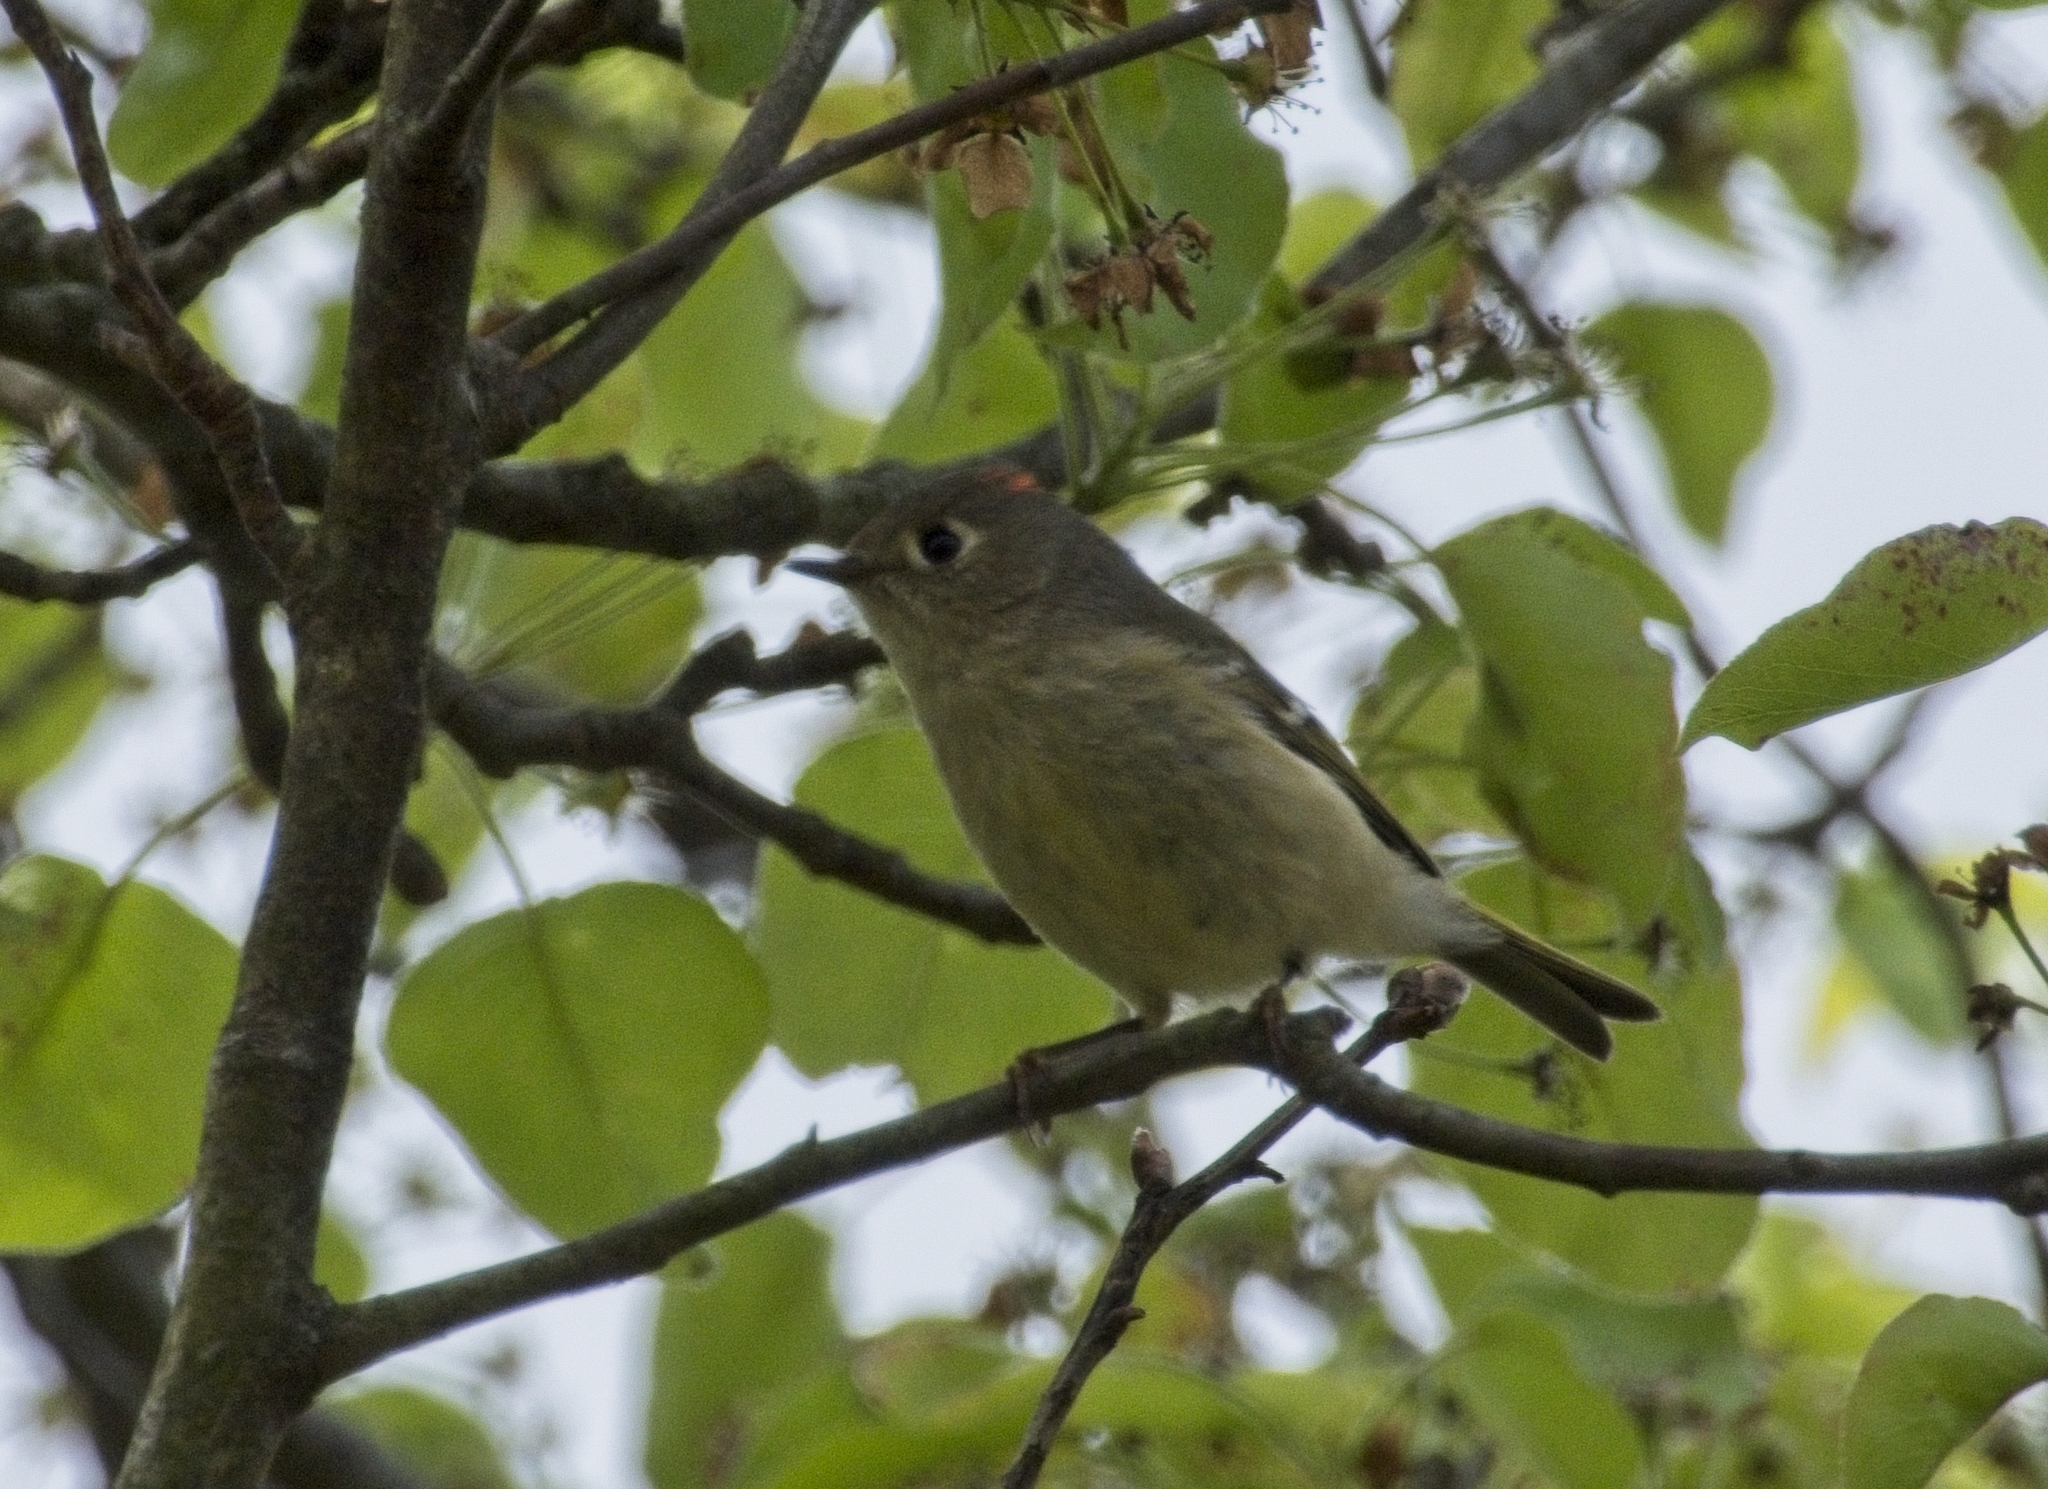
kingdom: Animalia
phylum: Chordata
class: Aves
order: Passeriformes
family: Regulidae
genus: Regulus
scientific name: Regulus calendula
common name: Ruby-crowned kinglet
